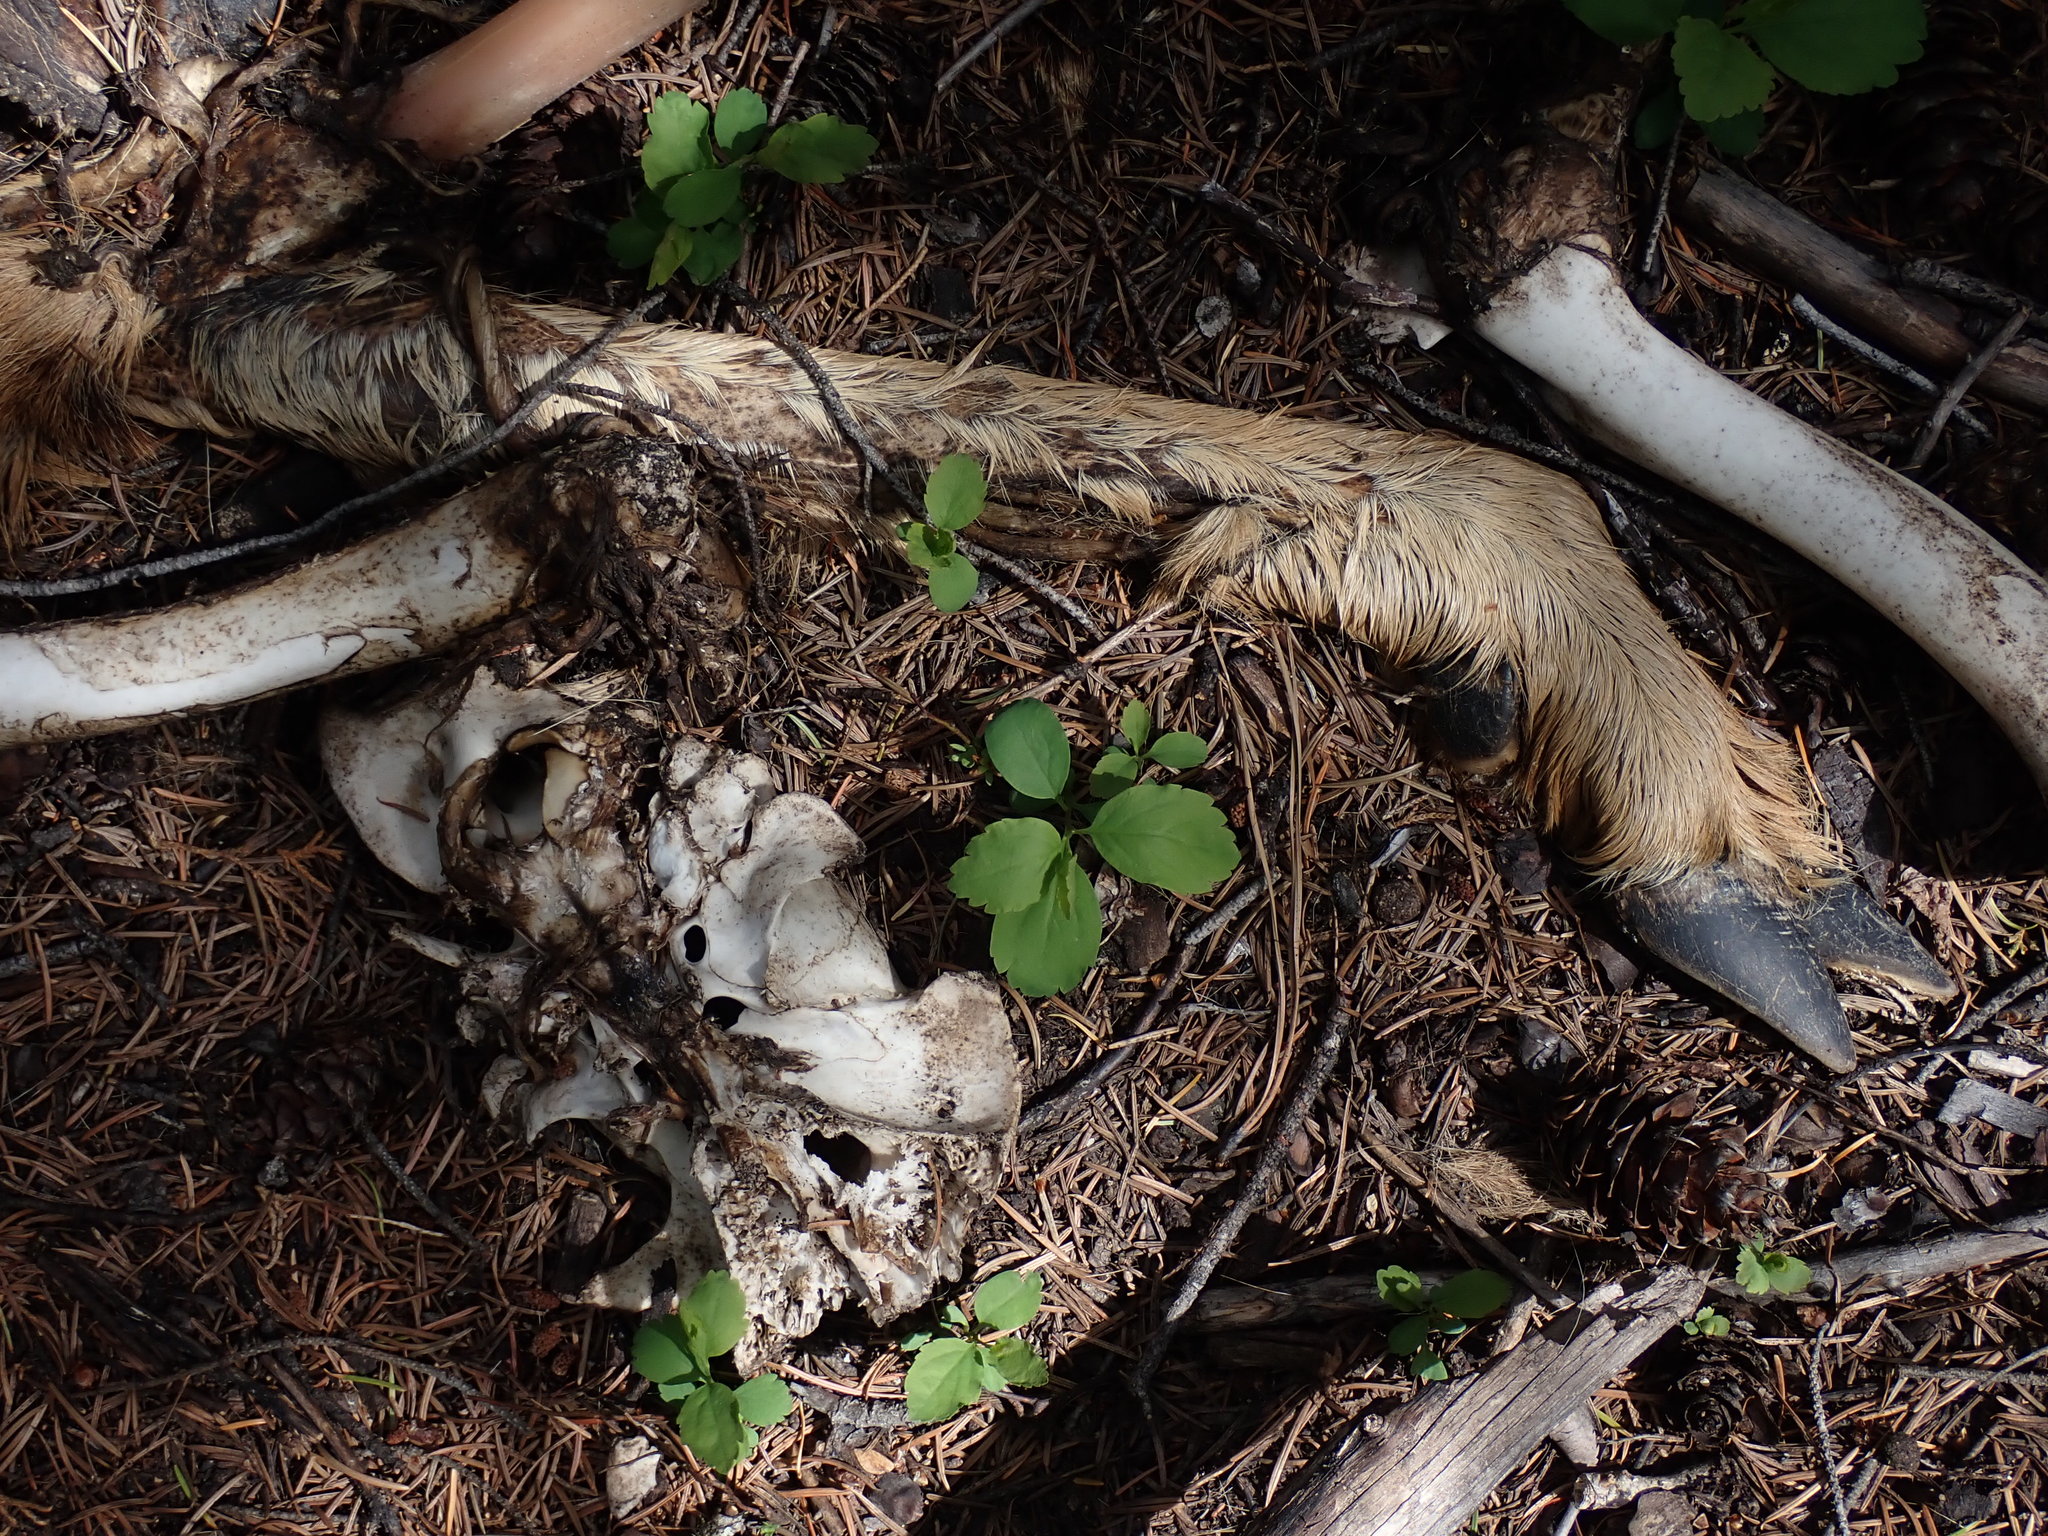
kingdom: Animalia
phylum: Chordata
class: Mammalia
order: Artiodactyla
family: Cervidae
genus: Odocoileus
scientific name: Odocoileus hemionus
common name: Mule deer
